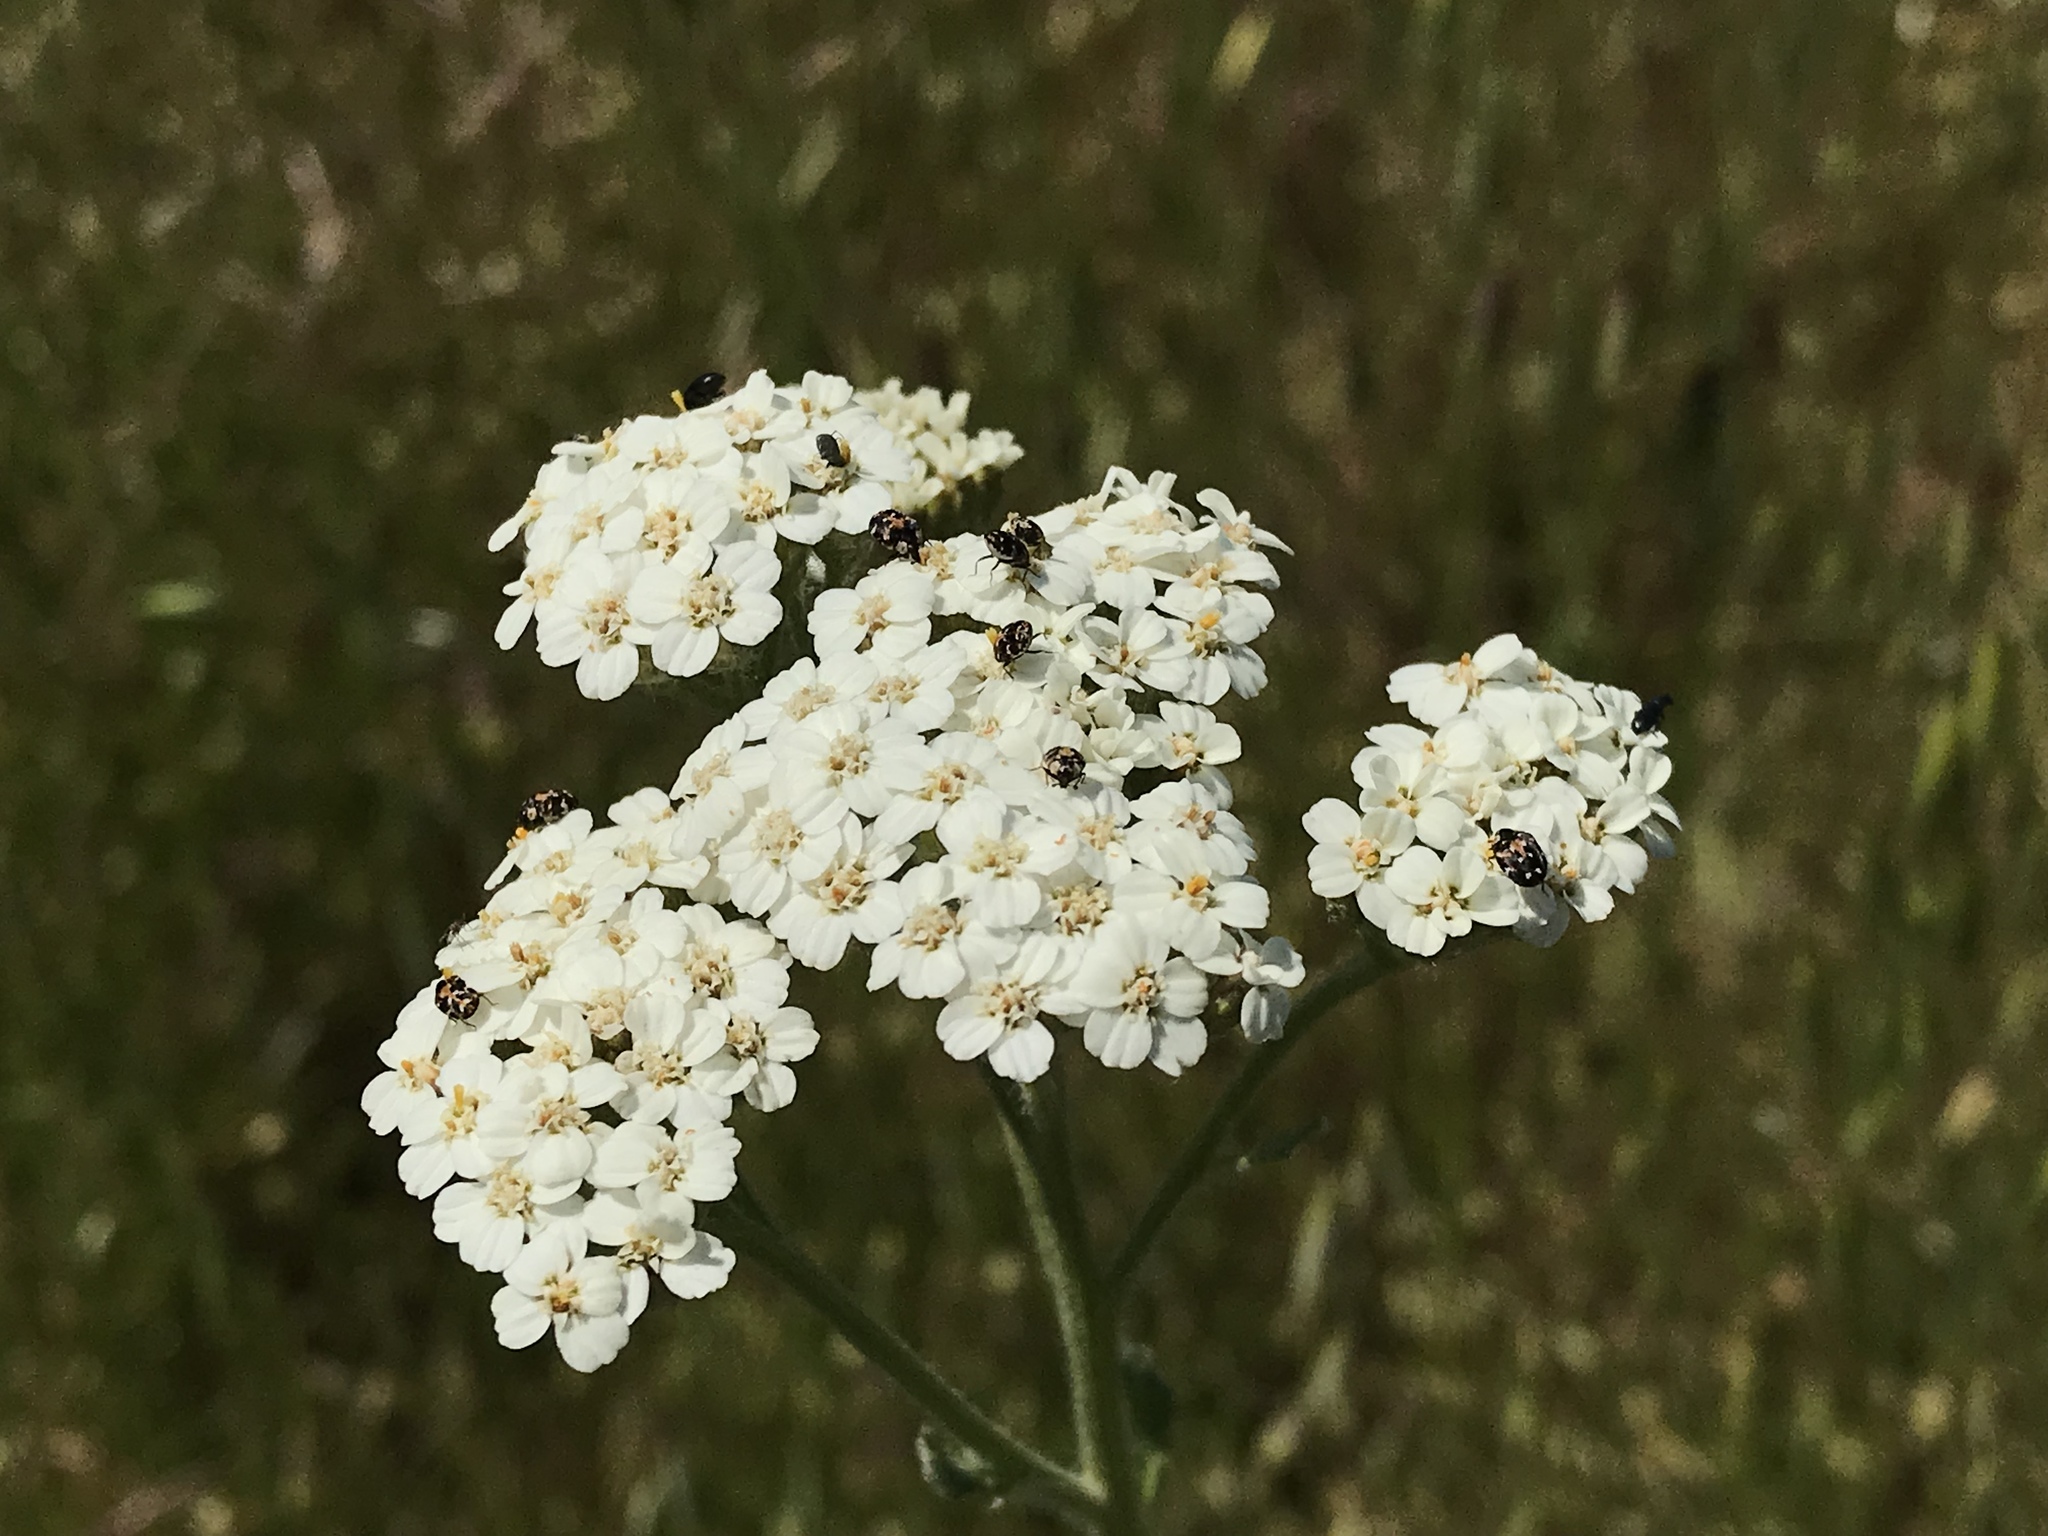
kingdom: Plantae
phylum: Tracheophyta
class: Magnoliopsida
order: Asterales
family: Asteraceae
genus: Achillea
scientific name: Achillea millefolium
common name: Yarrow
